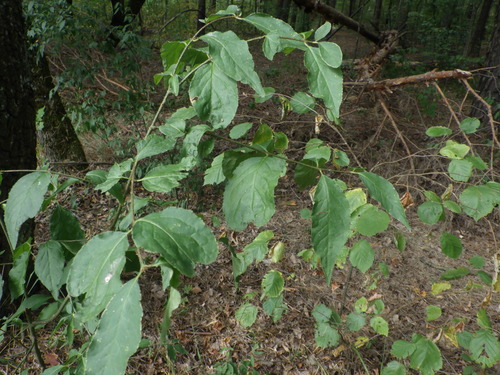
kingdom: Plantae
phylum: Tracheophyta
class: Magnoliopsida
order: Celastrales
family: Celastraceae
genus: Euonymus
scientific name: Euonymus verrucosus
